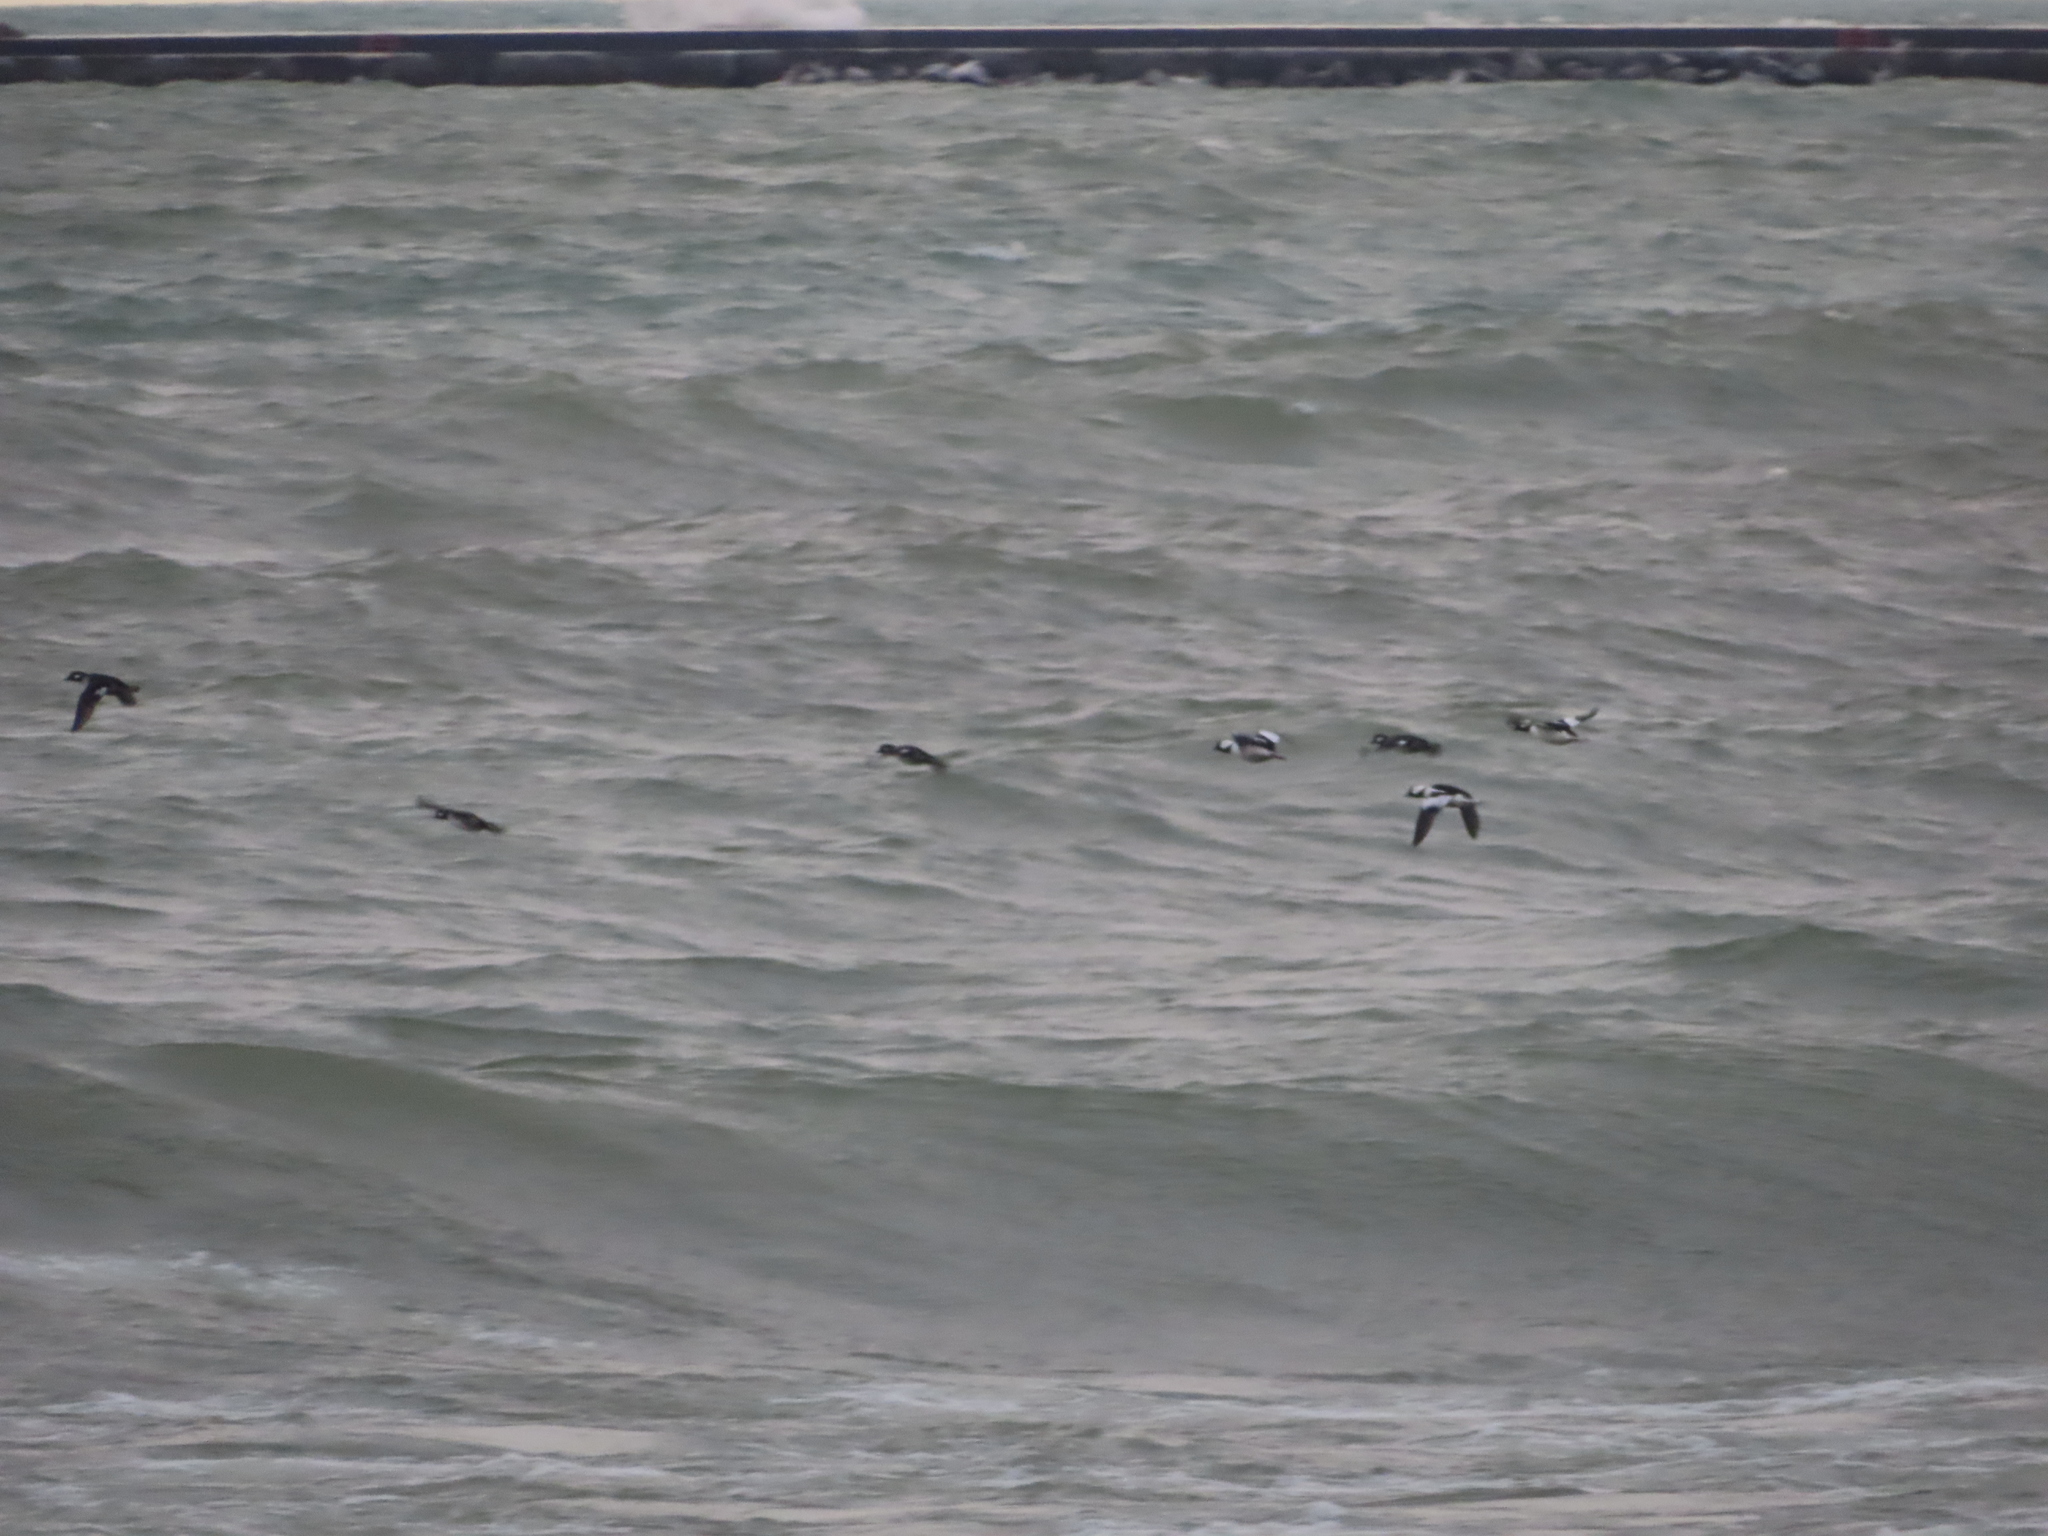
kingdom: Animalia
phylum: Chordata
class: Aves
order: Anseriformes
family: Anatidae
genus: Bucephala
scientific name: Bucephala albeola
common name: Bufflehead
